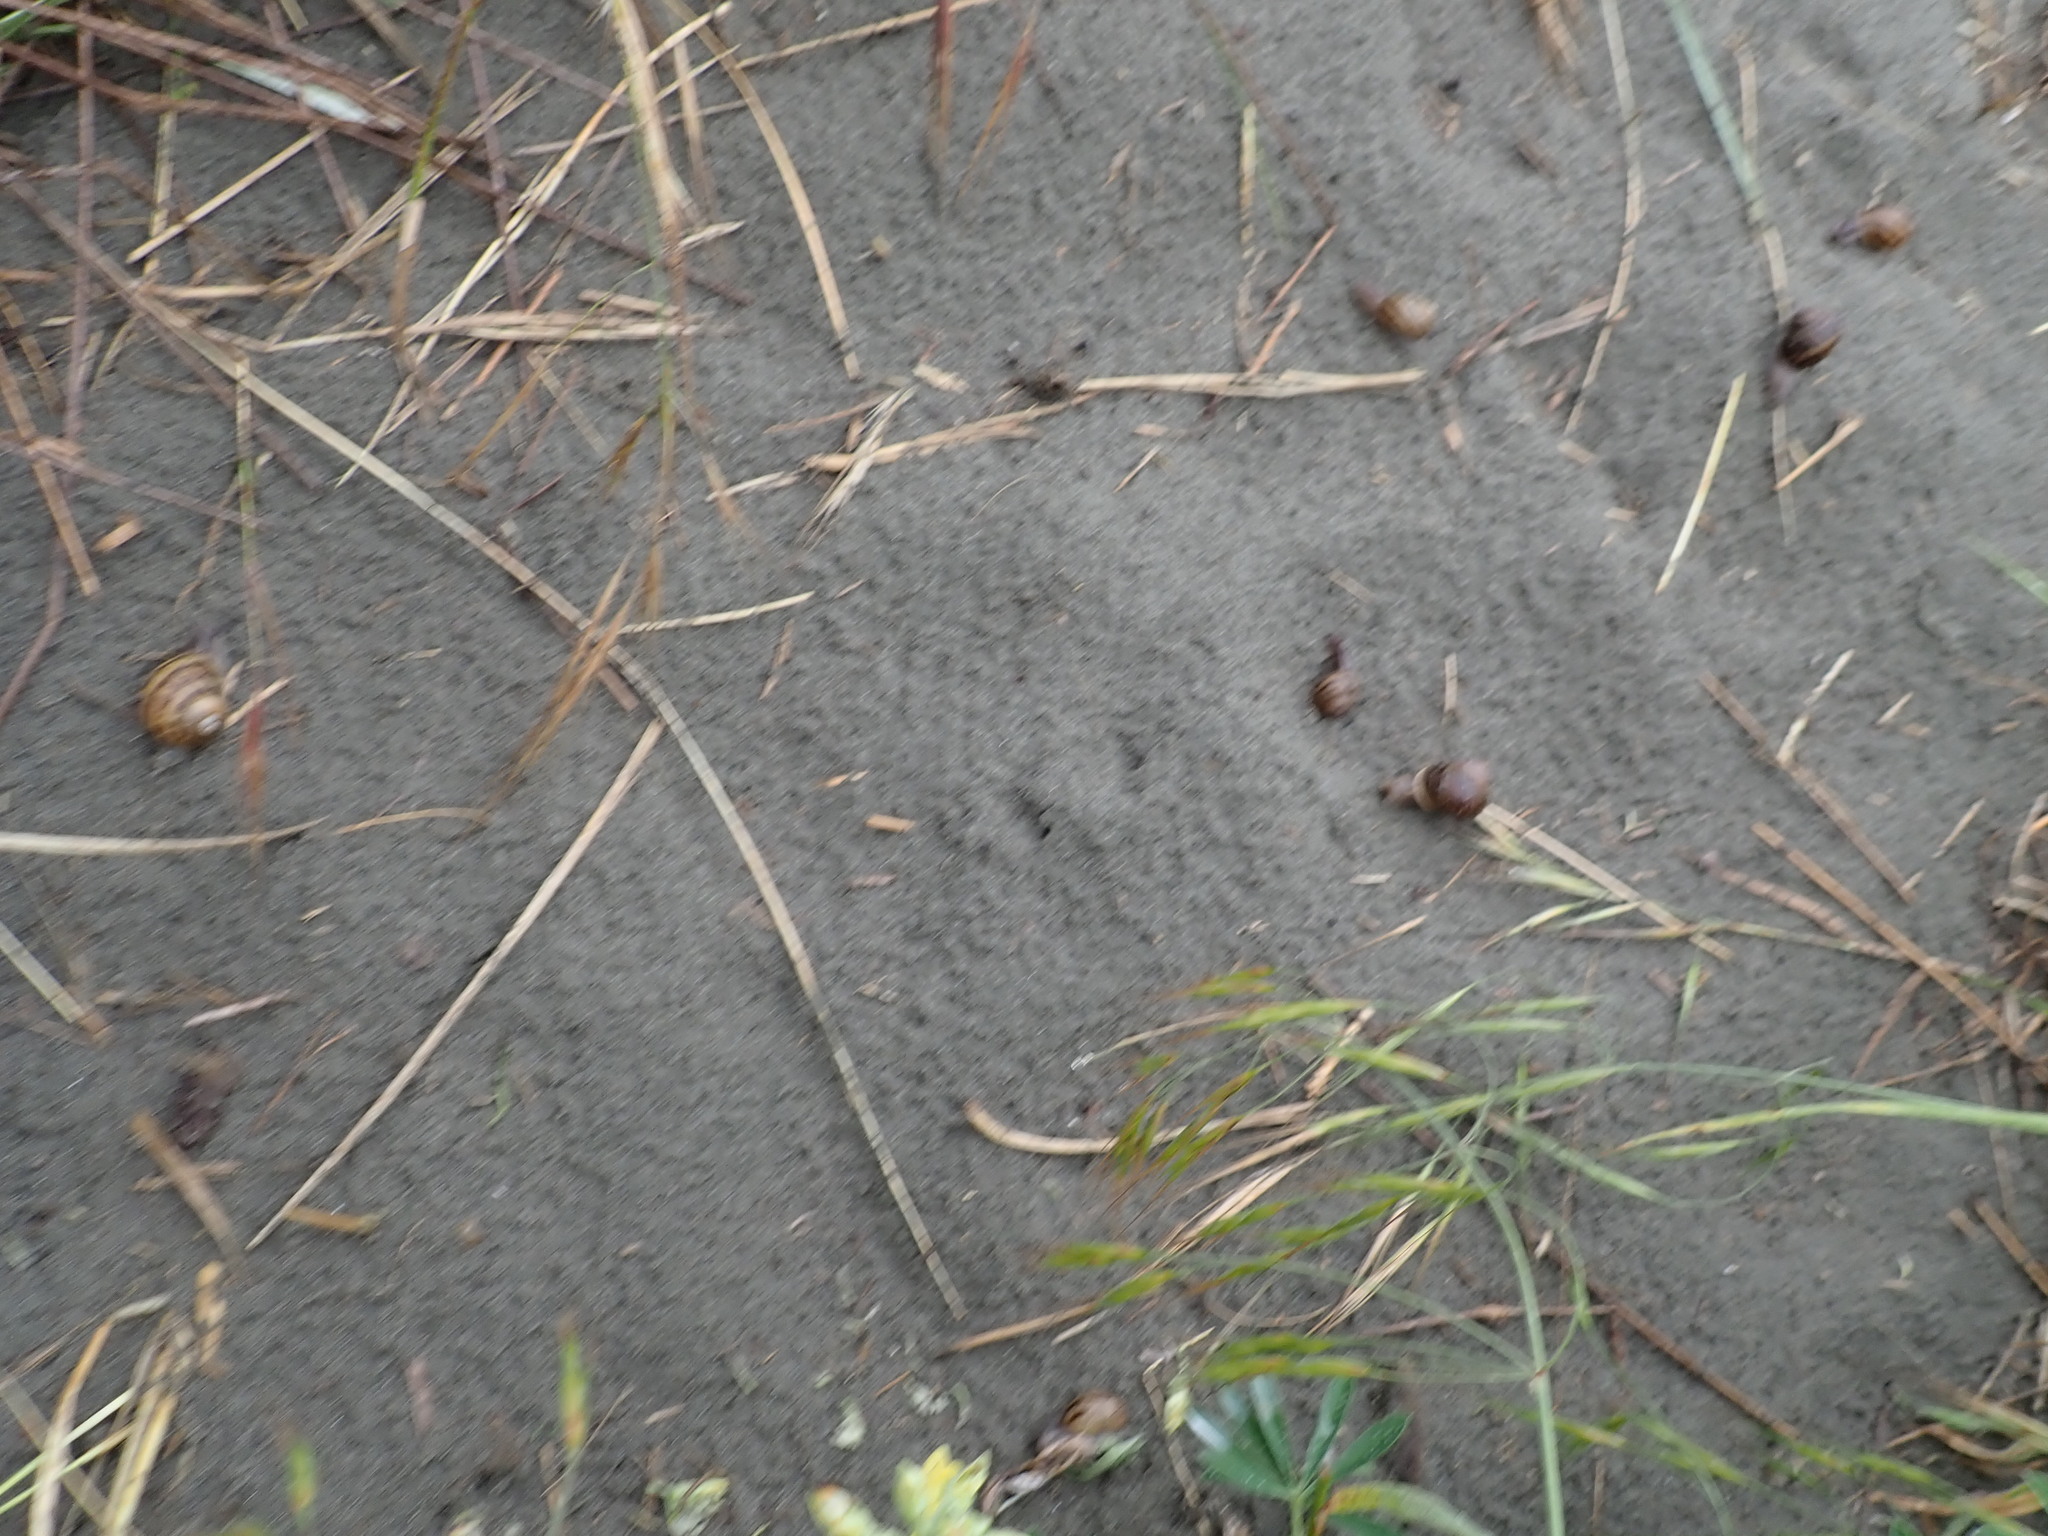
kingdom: Animalia
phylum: Mollusca
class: Gastropoda
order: Stylommatophora
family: Helicidae
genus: Cornu
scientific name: Cornu aspersum
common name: Brown garden snail
